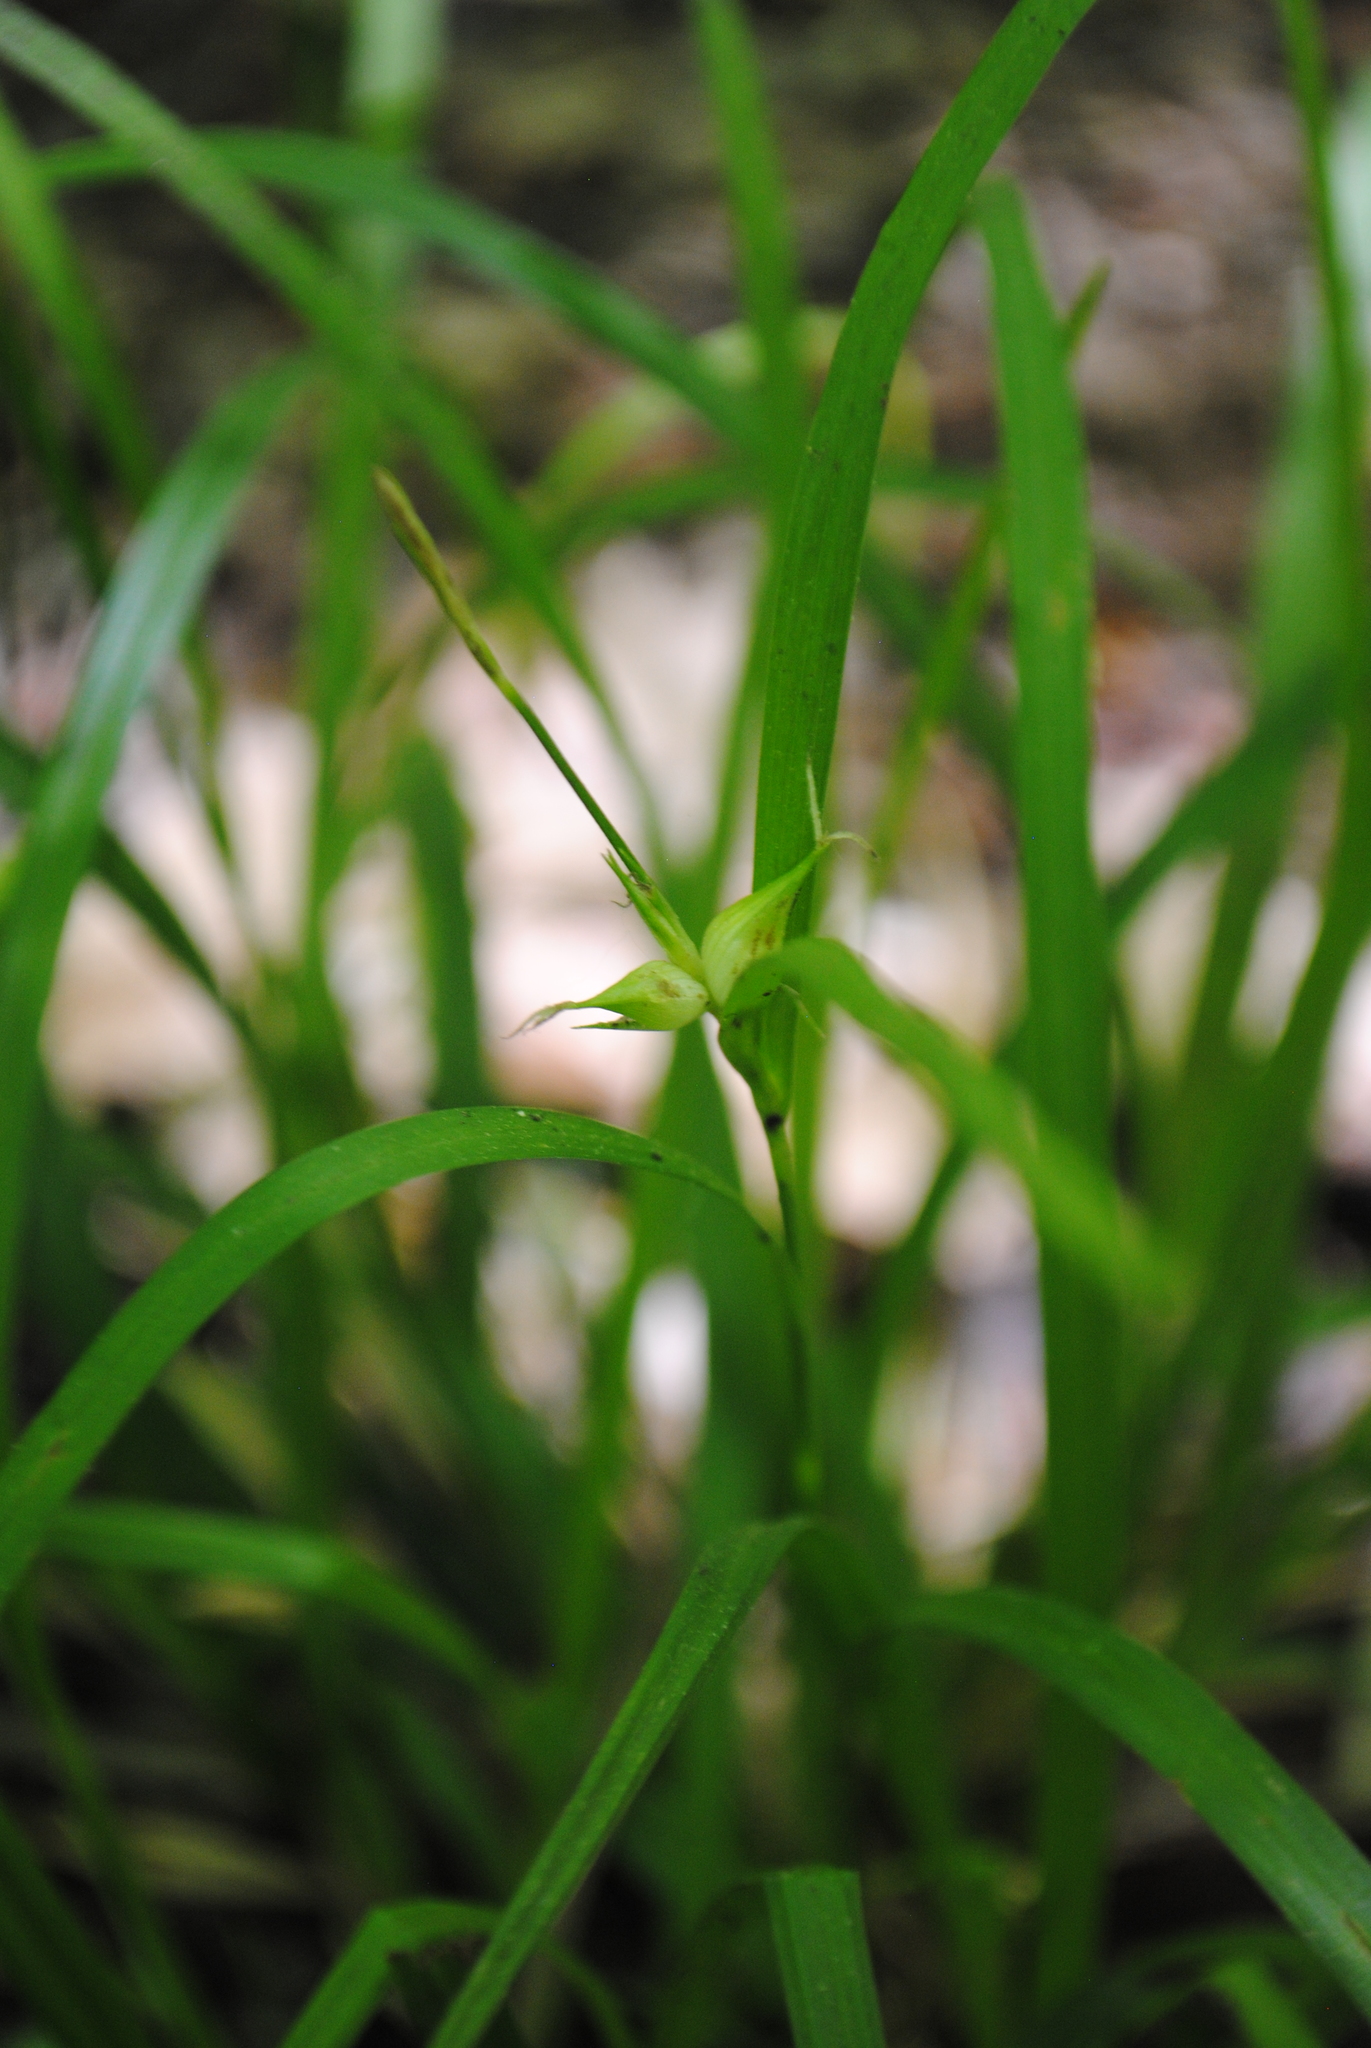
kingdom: Plantae
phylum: Tracheophyta
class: Liliopsida
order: Poales
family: Cyperaceae
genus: Carex
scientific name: Carex intumescens
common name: Greater bladder sedge
